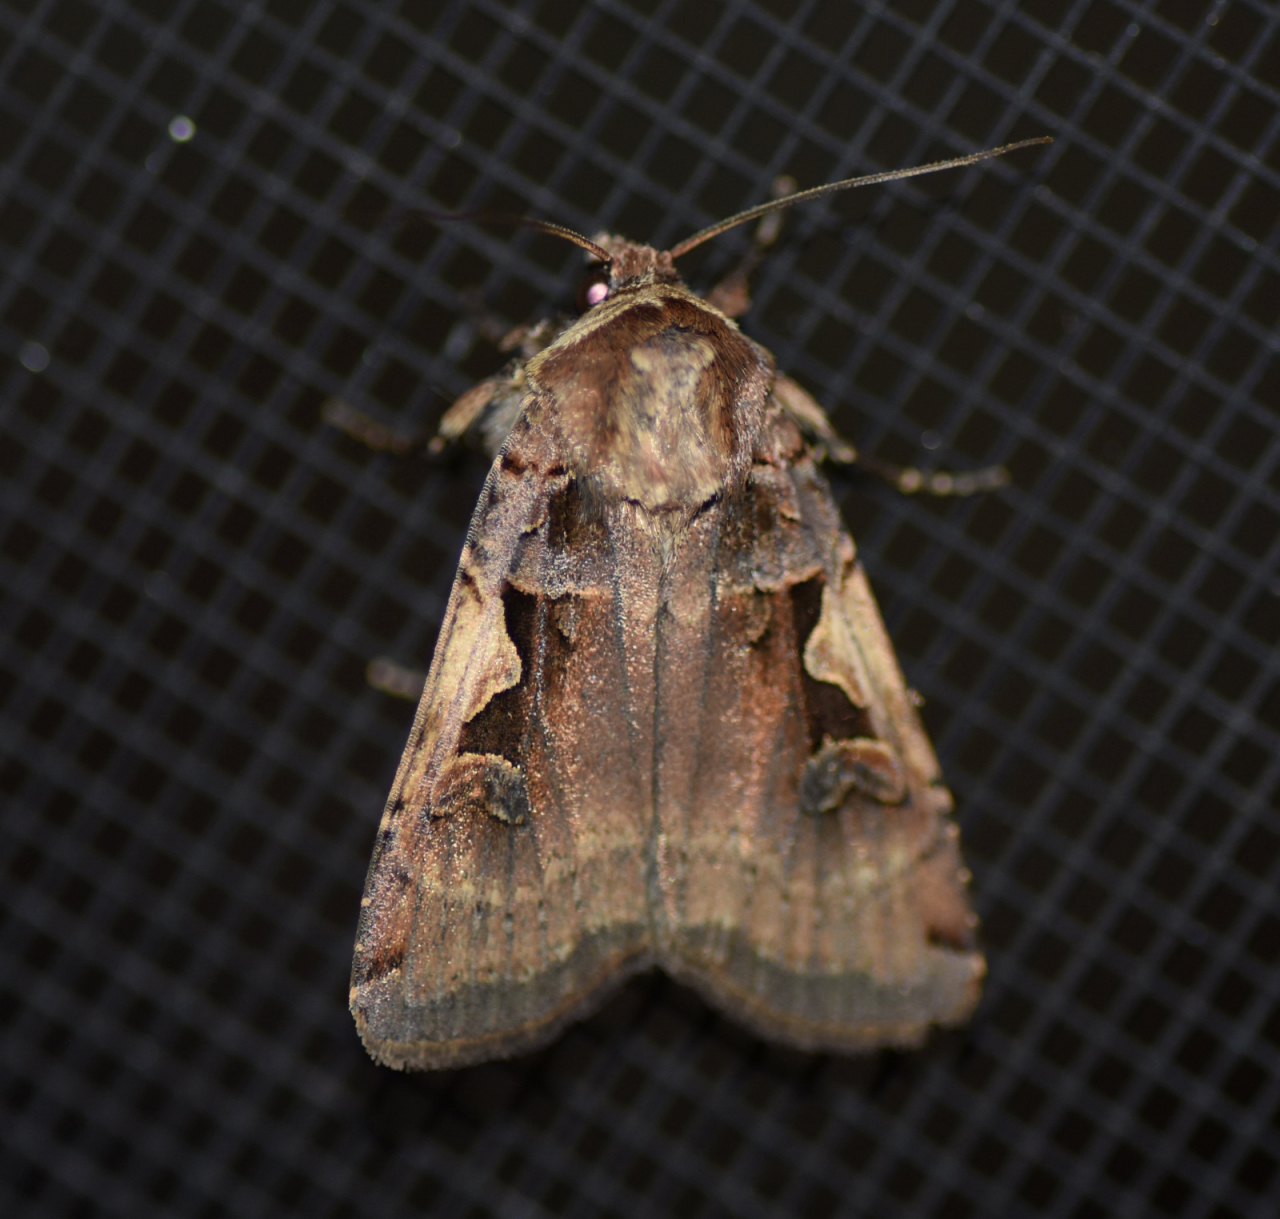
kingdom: Animalia
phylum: Arthropoda
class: Insecta
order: Lepidoptera
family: Noctuidae
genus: Xestia
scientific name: Xestia dolosa
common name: Cutworm moth
